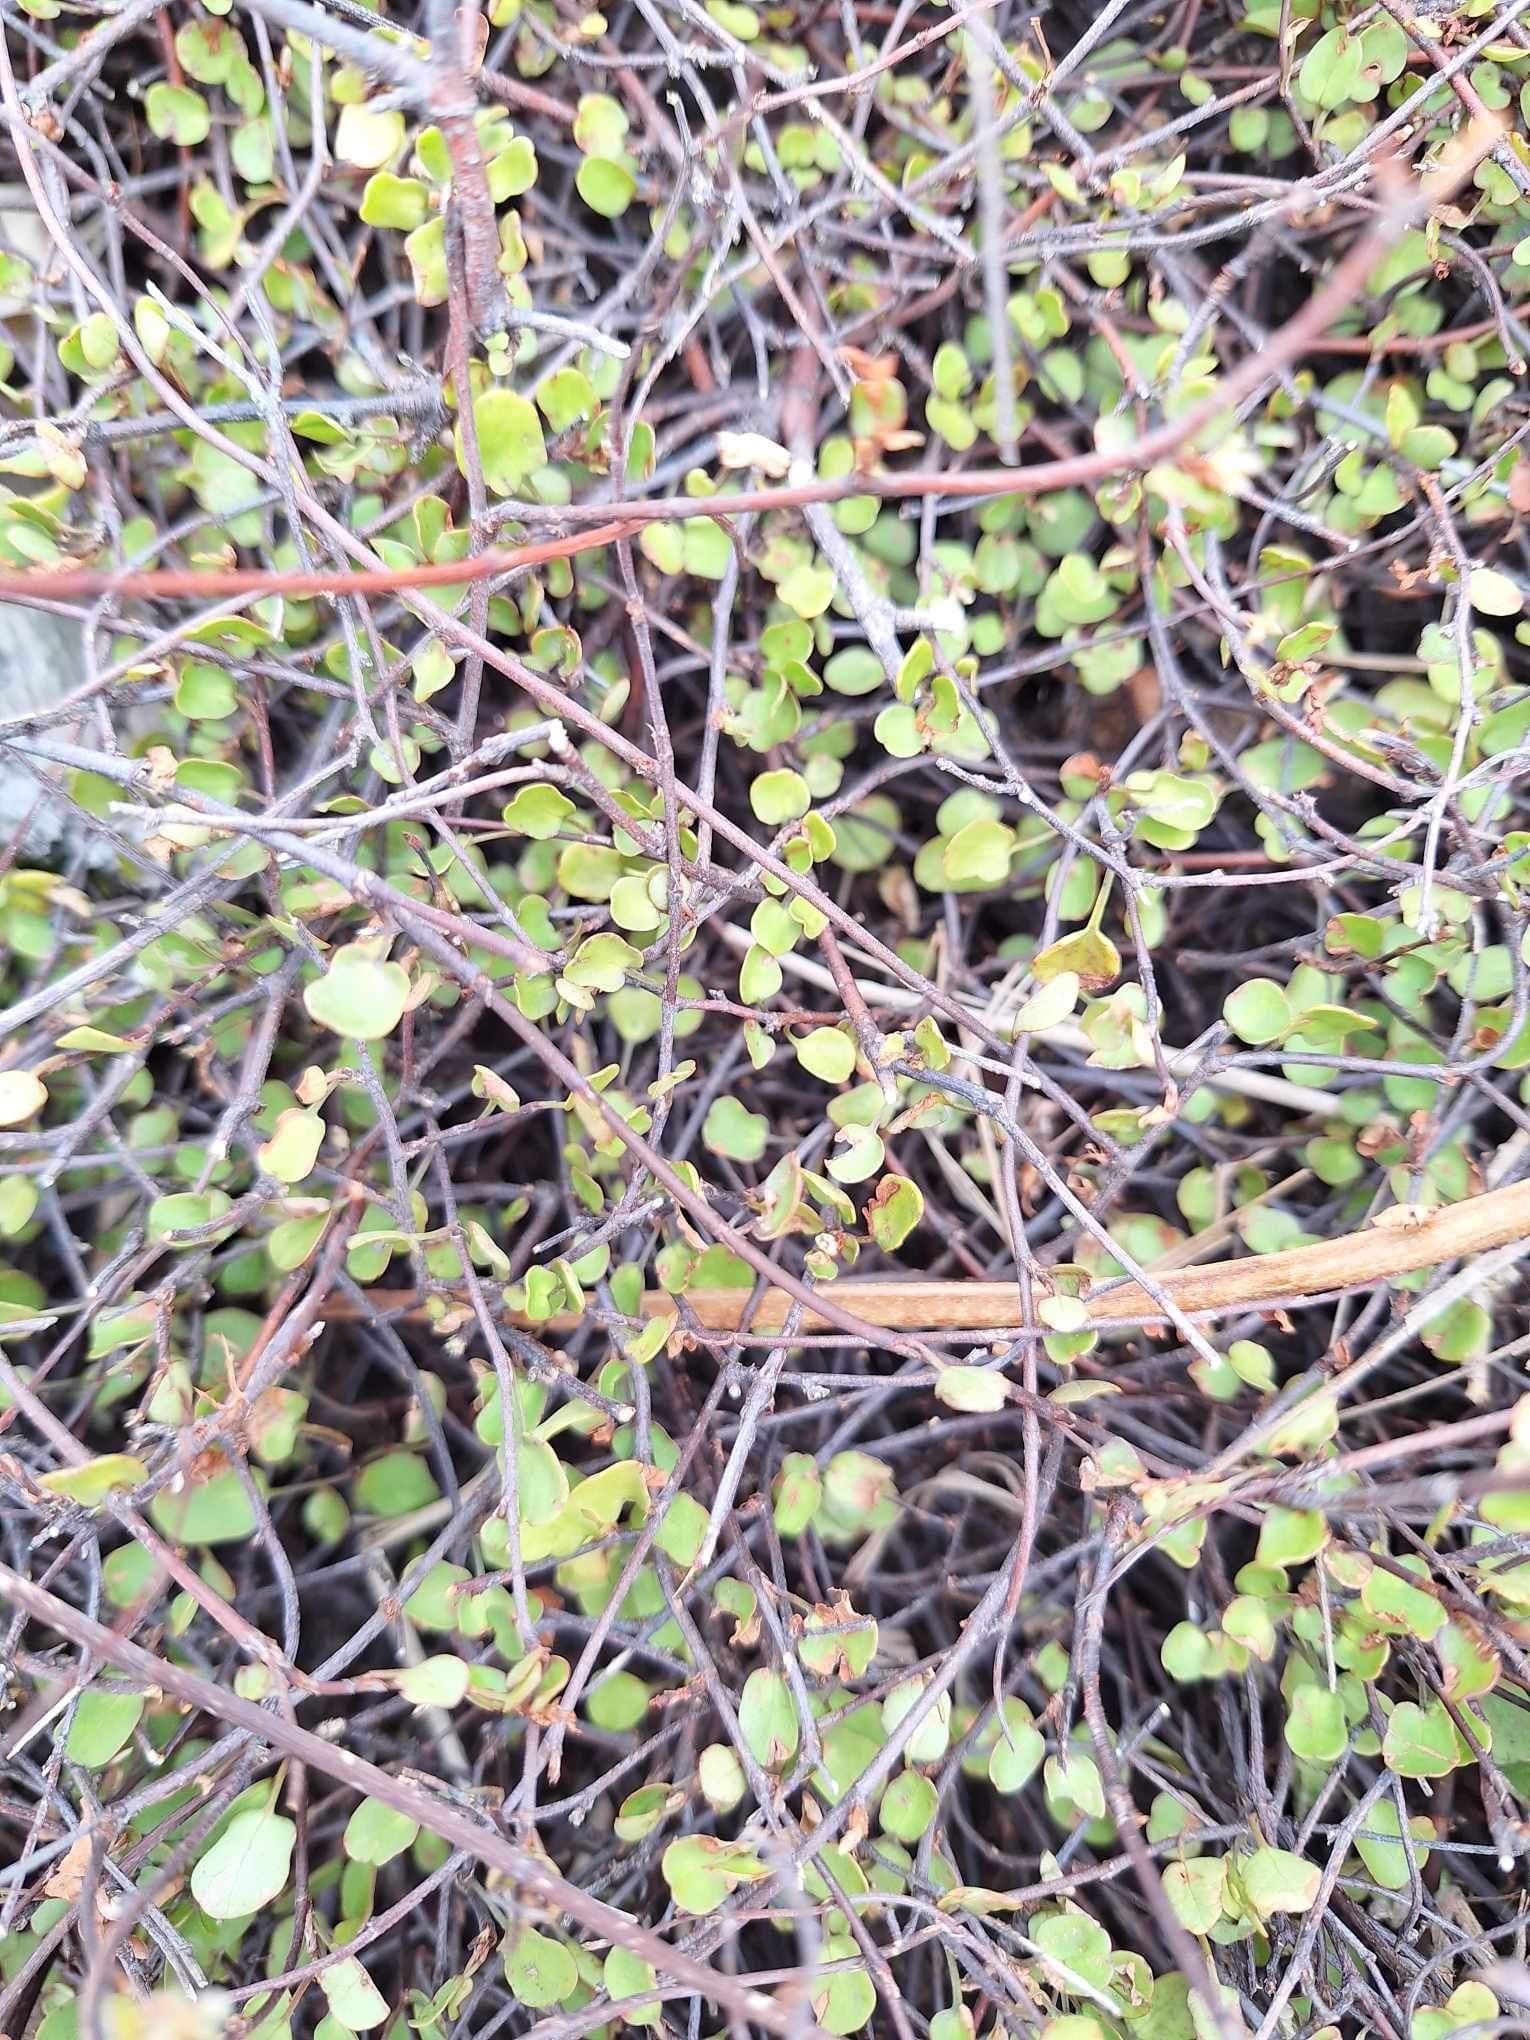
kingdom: Plantae
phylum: Tracheophyta
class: Magnoliopsida
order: Caryophyllales
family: Polygonaceae
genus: Muehlenbeckia
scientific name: Muehlenbeckia complexa
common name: Wireplant
